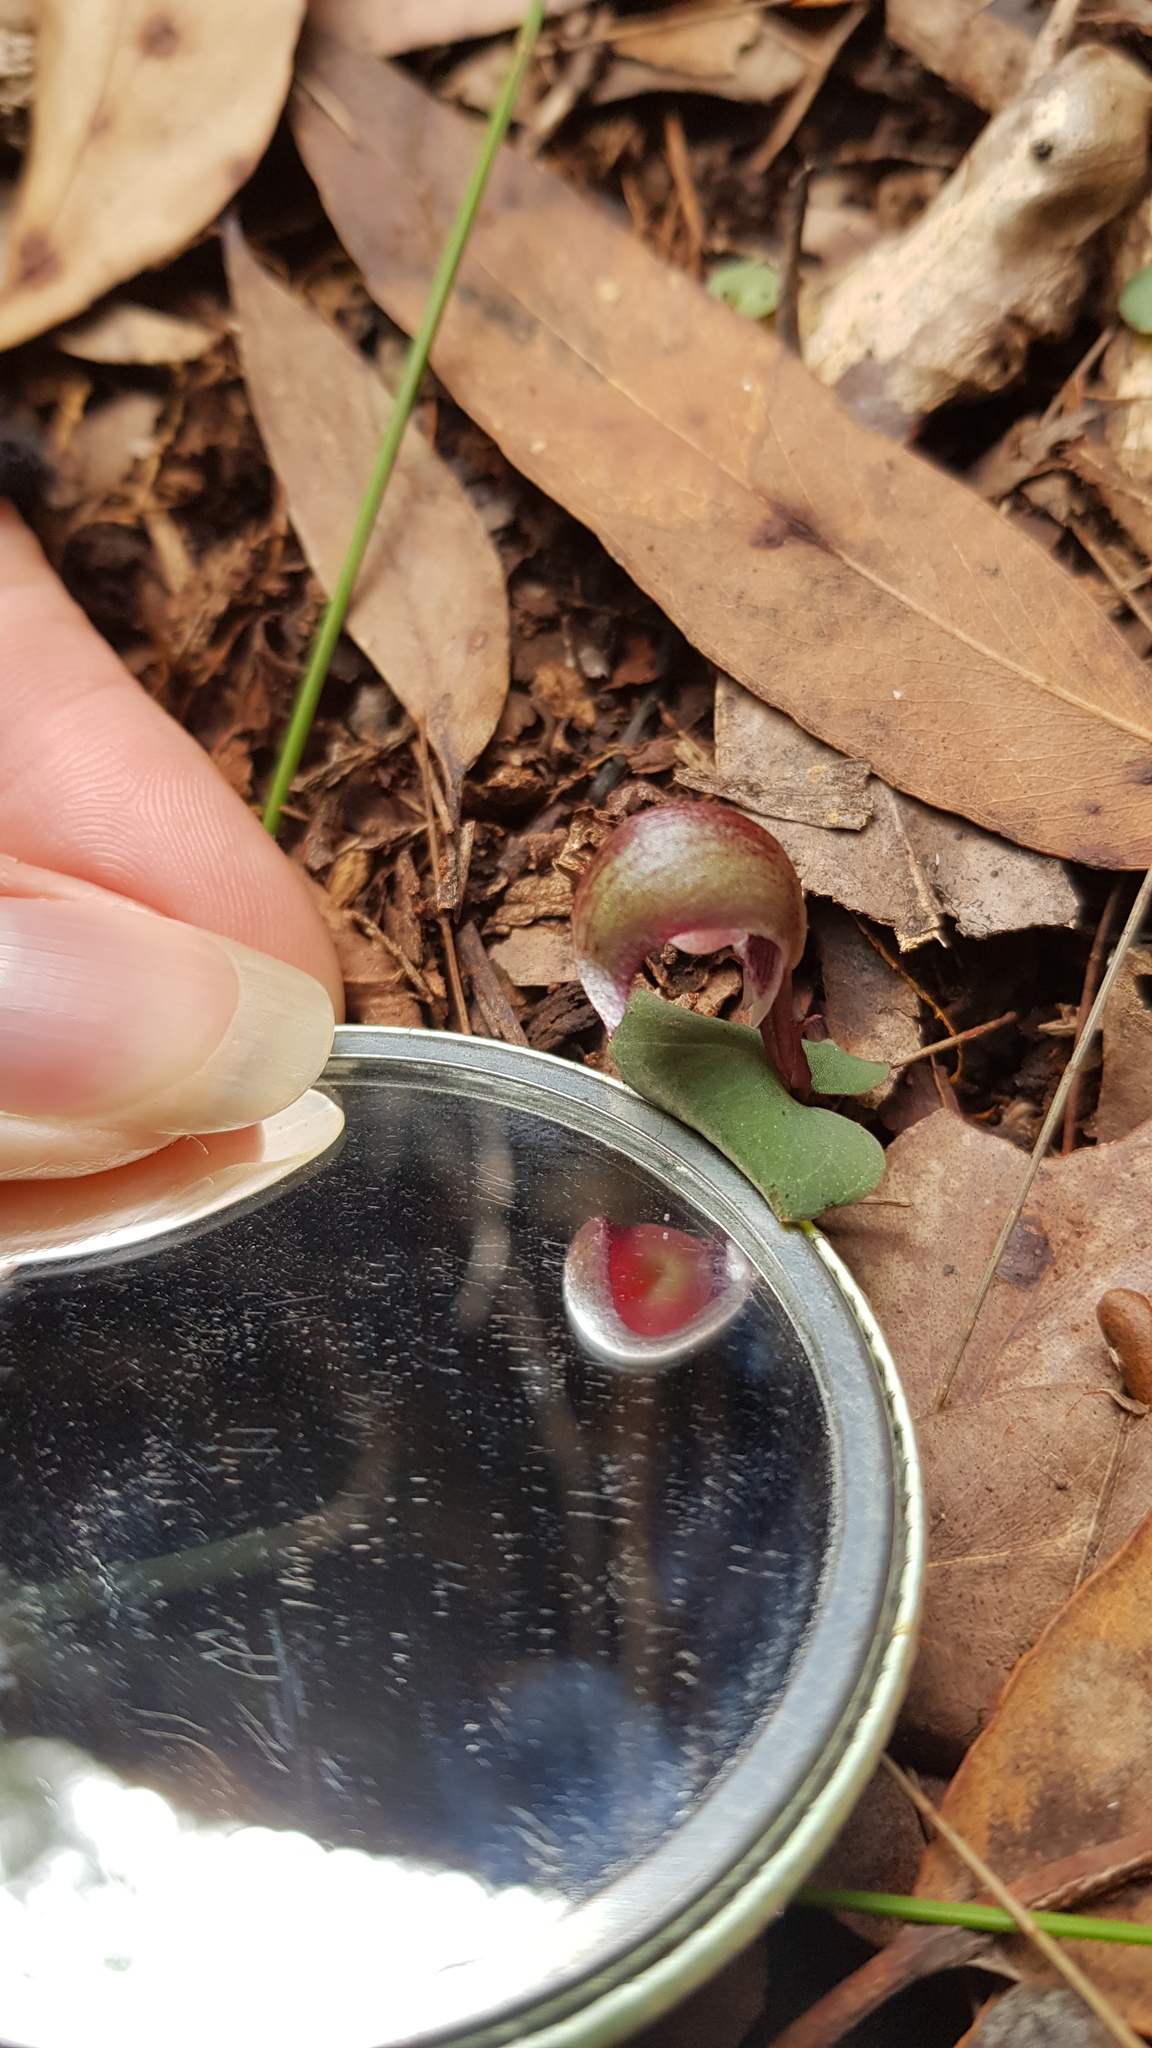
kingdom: Plantae
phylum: Tracheophyta
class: Liliopsida
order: Asparagales
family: Orchidaceae
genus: Corybas
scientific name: Corybas aconitiflorus
